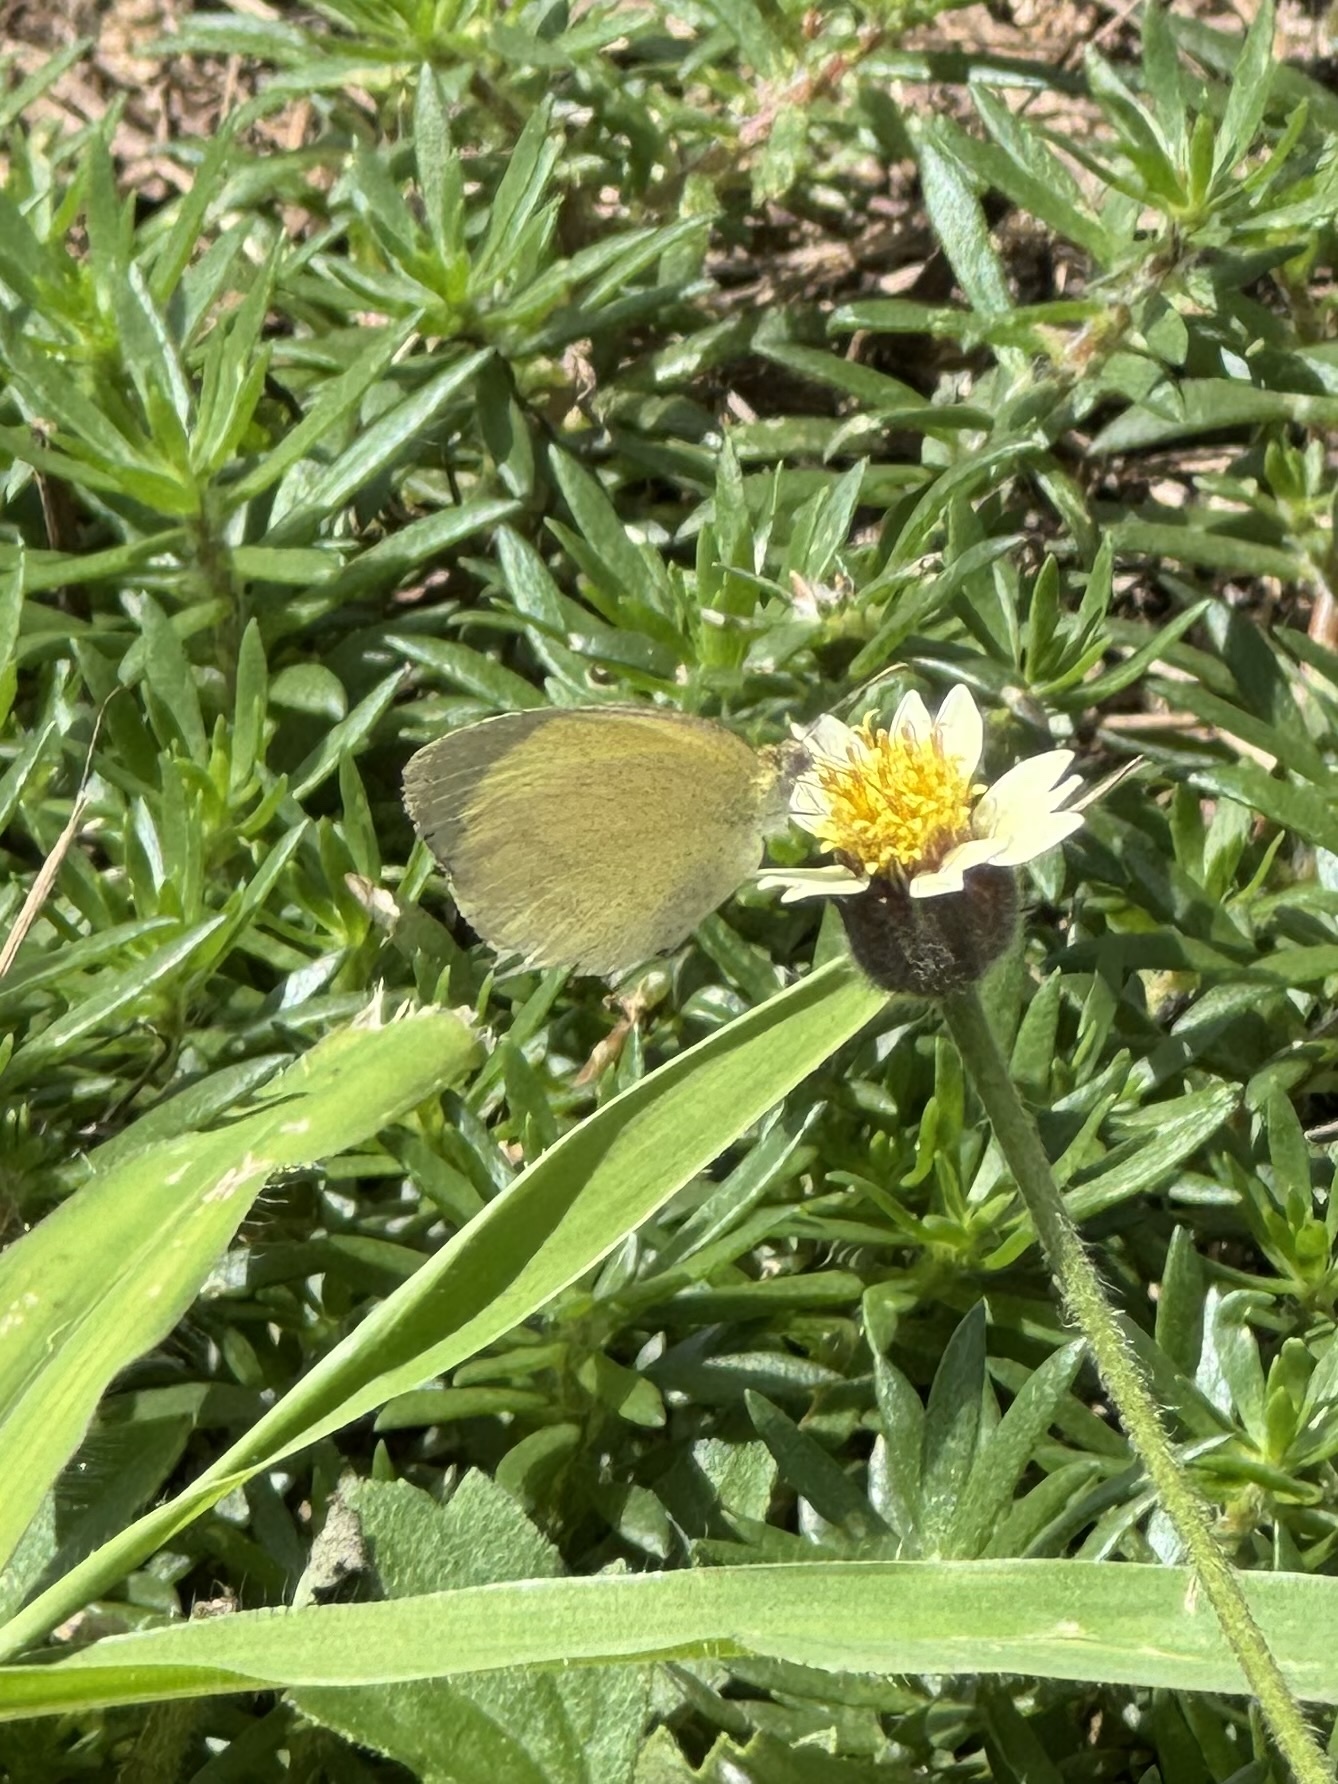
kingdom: Animalia
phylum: Arthropoda
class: Insecta
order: Lepidoptera
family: Pieridae
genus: Eurema
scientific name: Eurema herla
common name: Macleay's grass yellow
